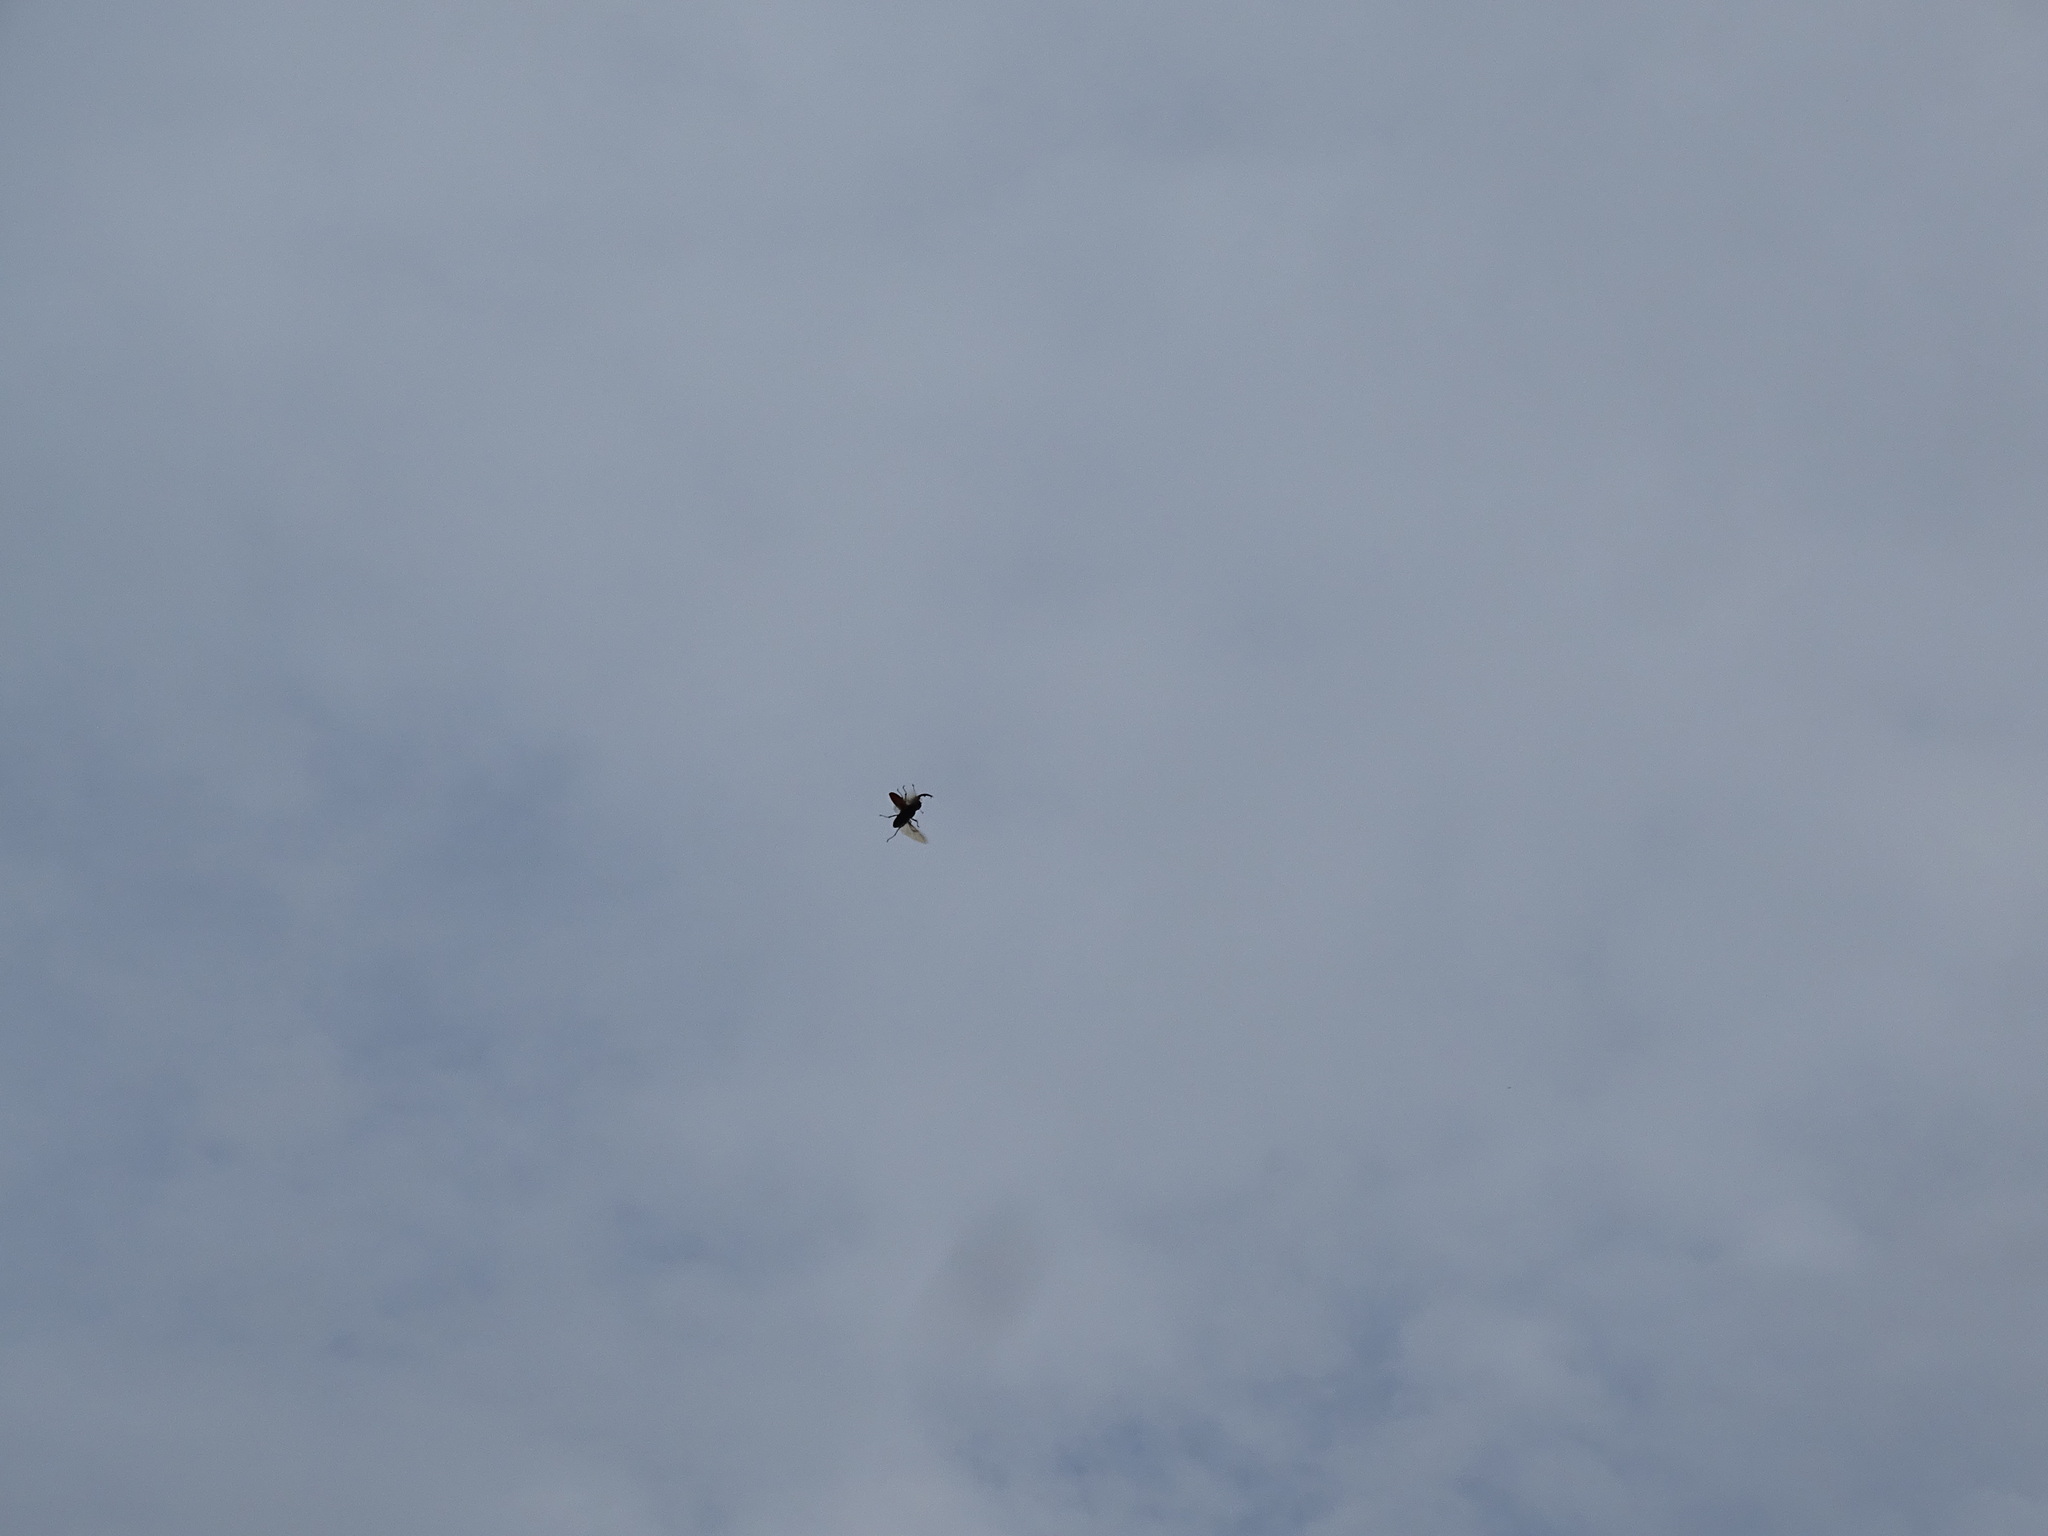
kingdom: Animalia
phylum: Arthropoda
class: Insecta
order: Coleoptera
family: Lucanidae
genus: Lucanus
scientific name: Lucanus cervus
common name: Stag beetle
